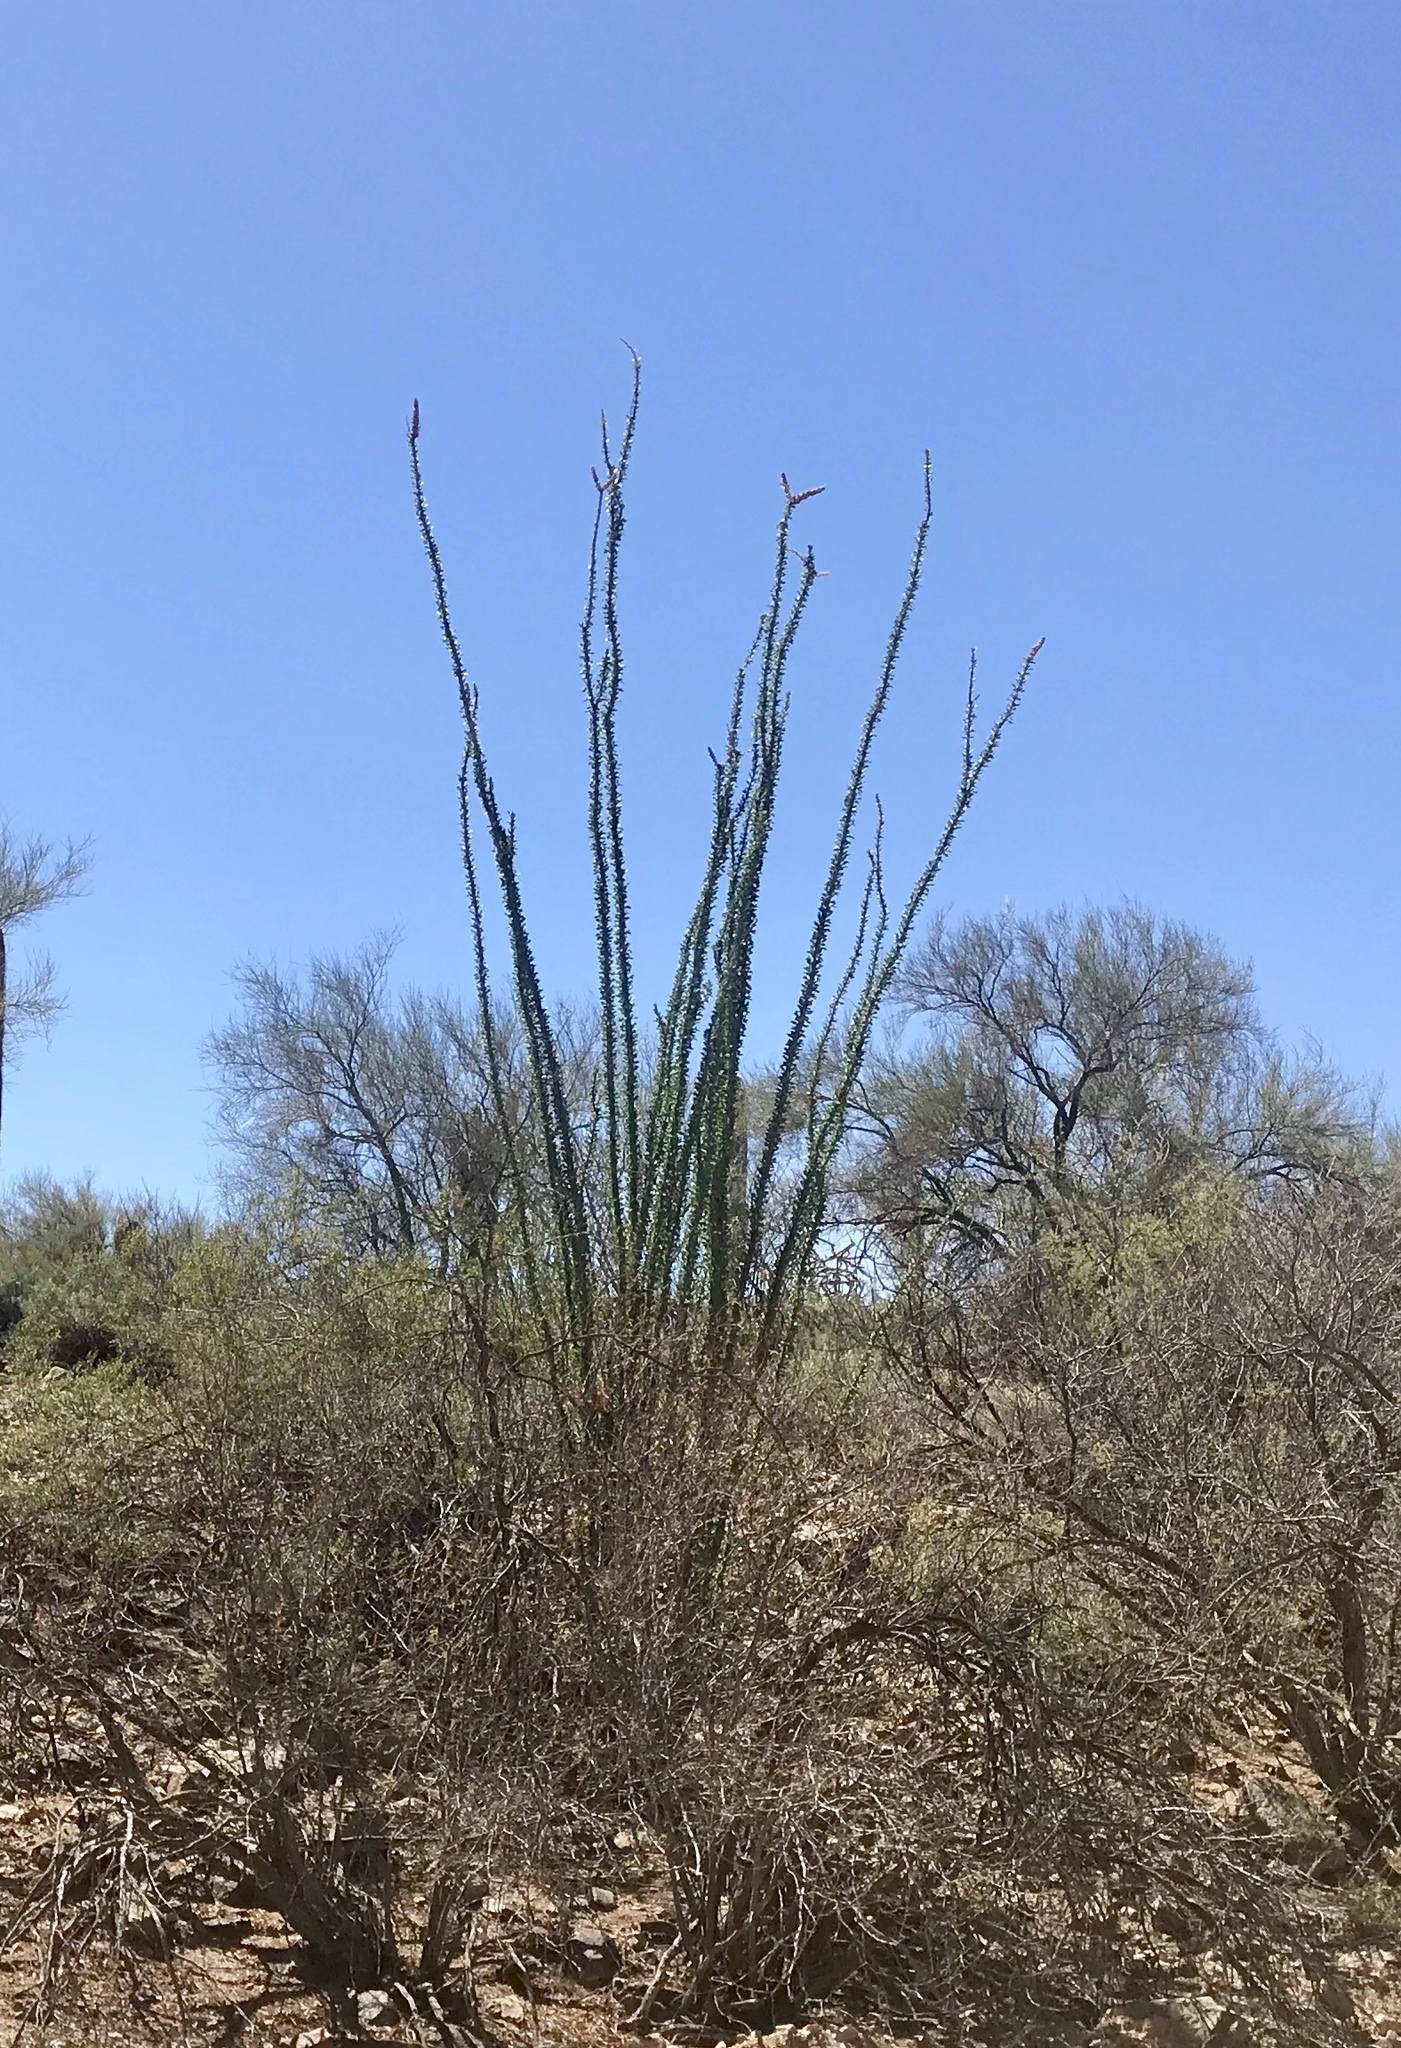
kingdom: Plantae
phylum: Tracheophyta
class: Magnoliopsida
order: Ericales
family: Fouquieriaceae
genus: Fouquieria
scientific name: Fouquieria splendens
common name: Vine-cactus
